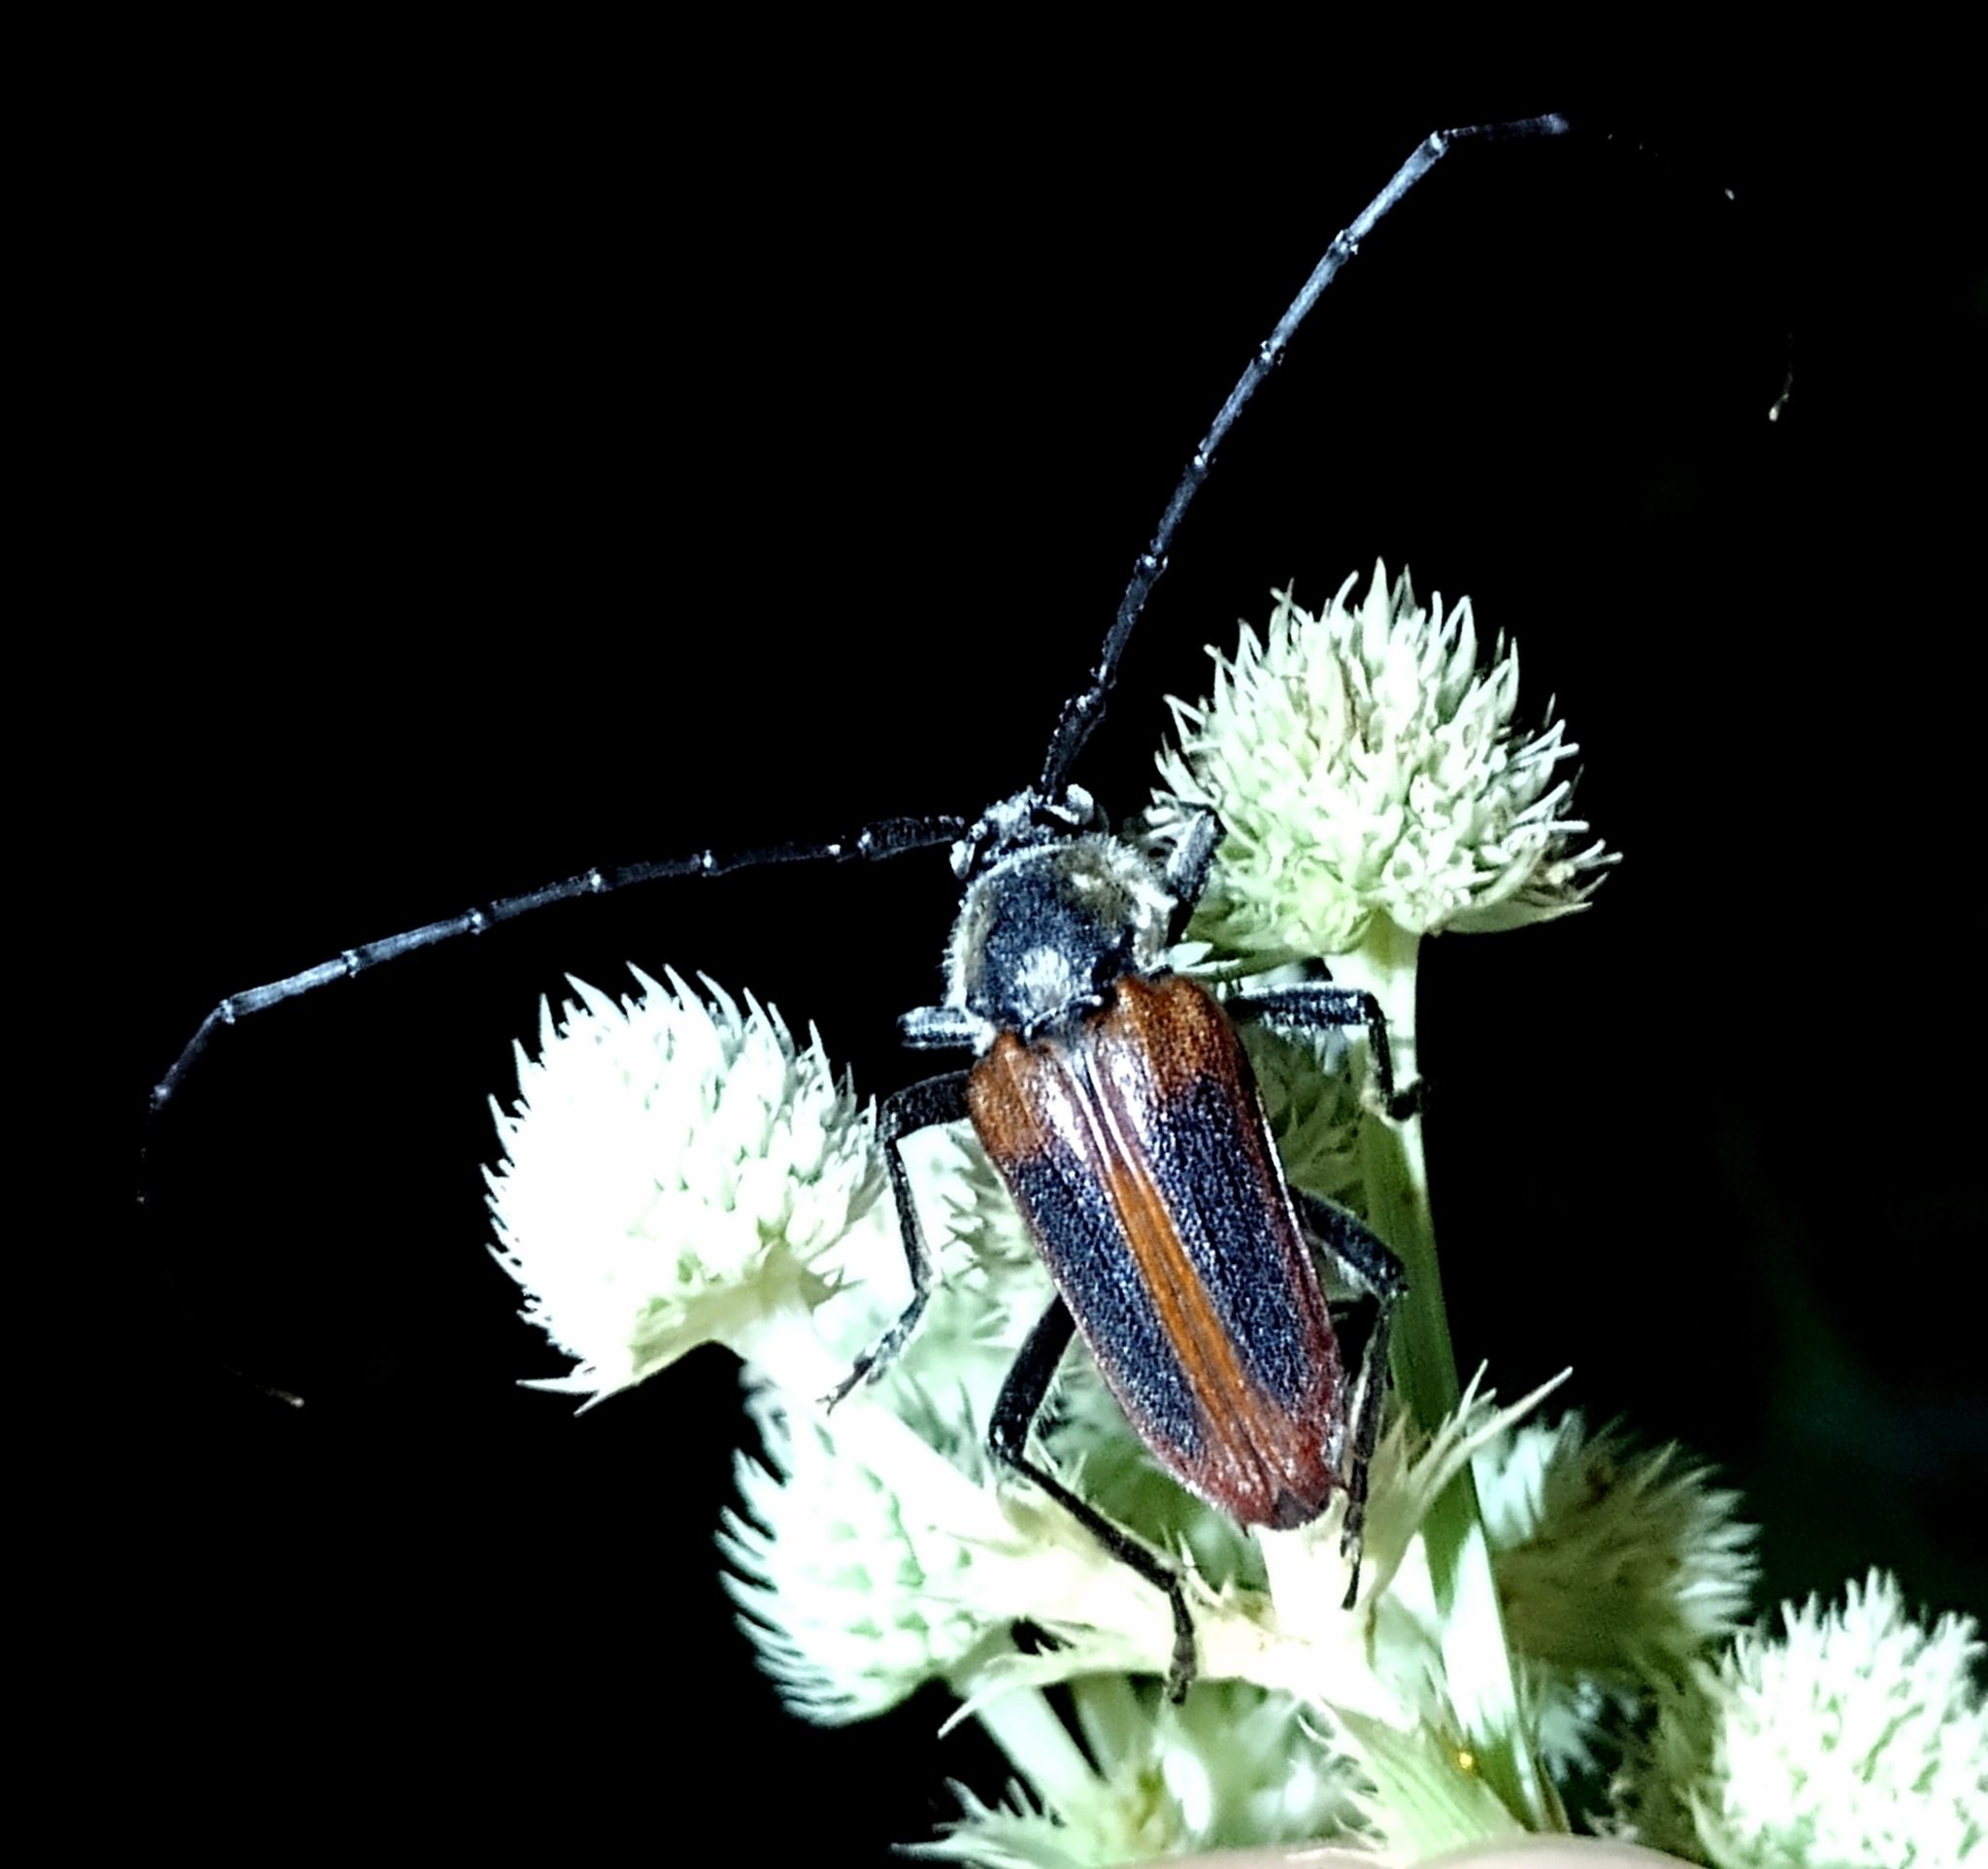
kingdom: Animalia
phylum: Arthropoda
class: Insecta
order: Coleoptera
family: Cerambycidae
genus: Basiptera
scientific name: Basiptera castaneipennis
